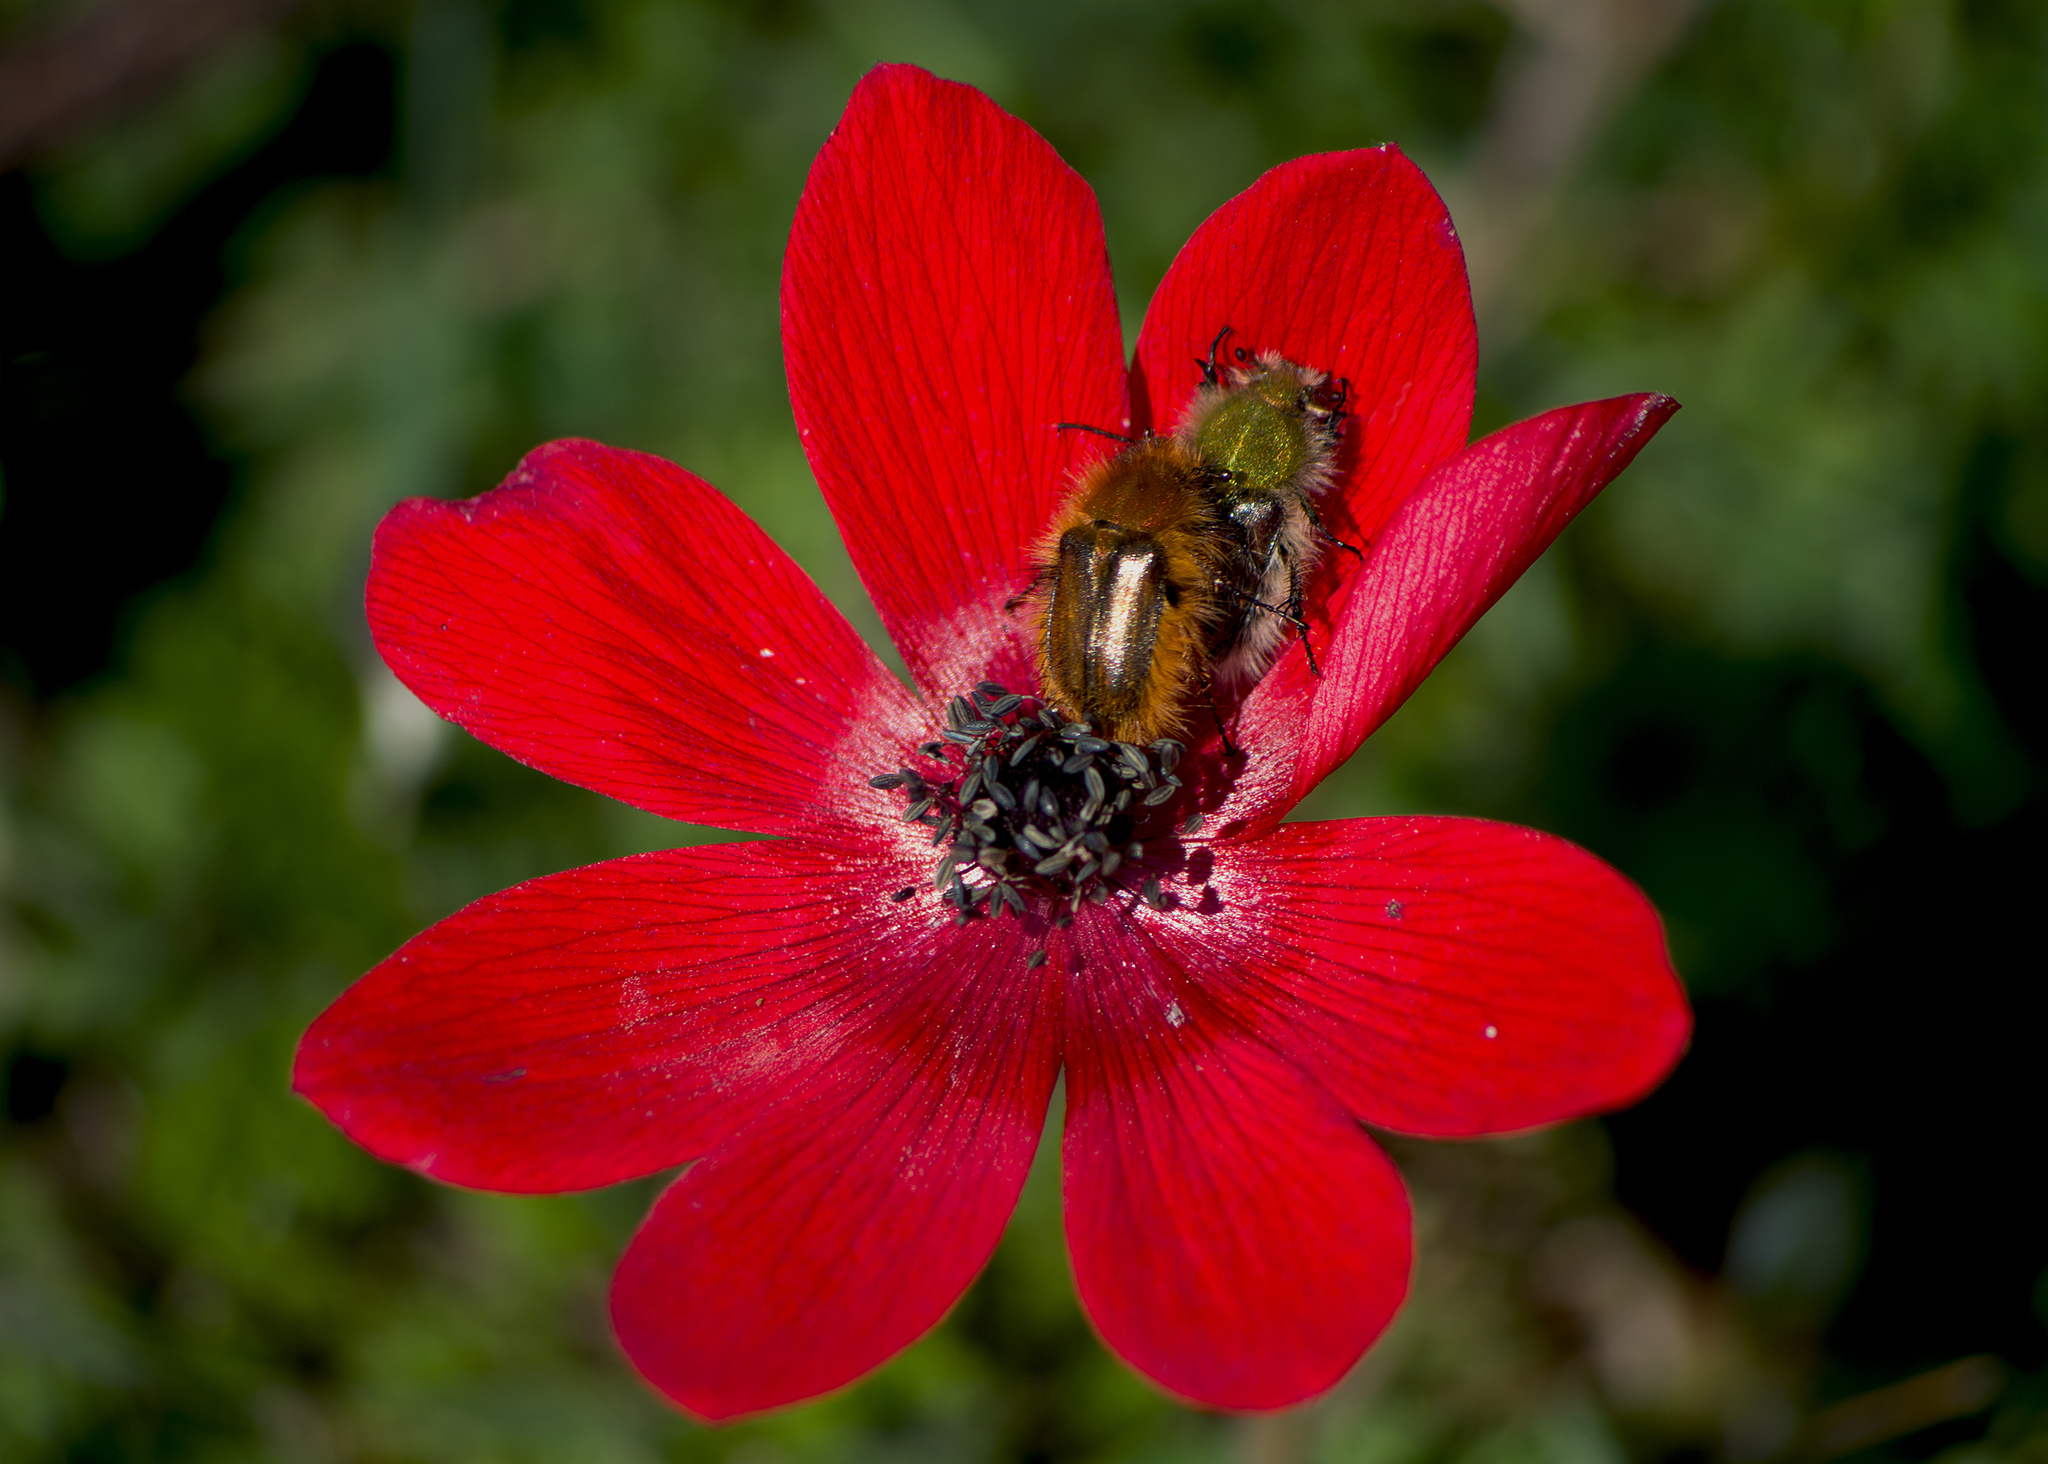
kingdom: Plantae
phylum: Tracheophyta
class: Magnoliopsida
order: Ranunculales
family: Ranunculaceae
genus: Anemone
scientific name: Anemone pavonina
